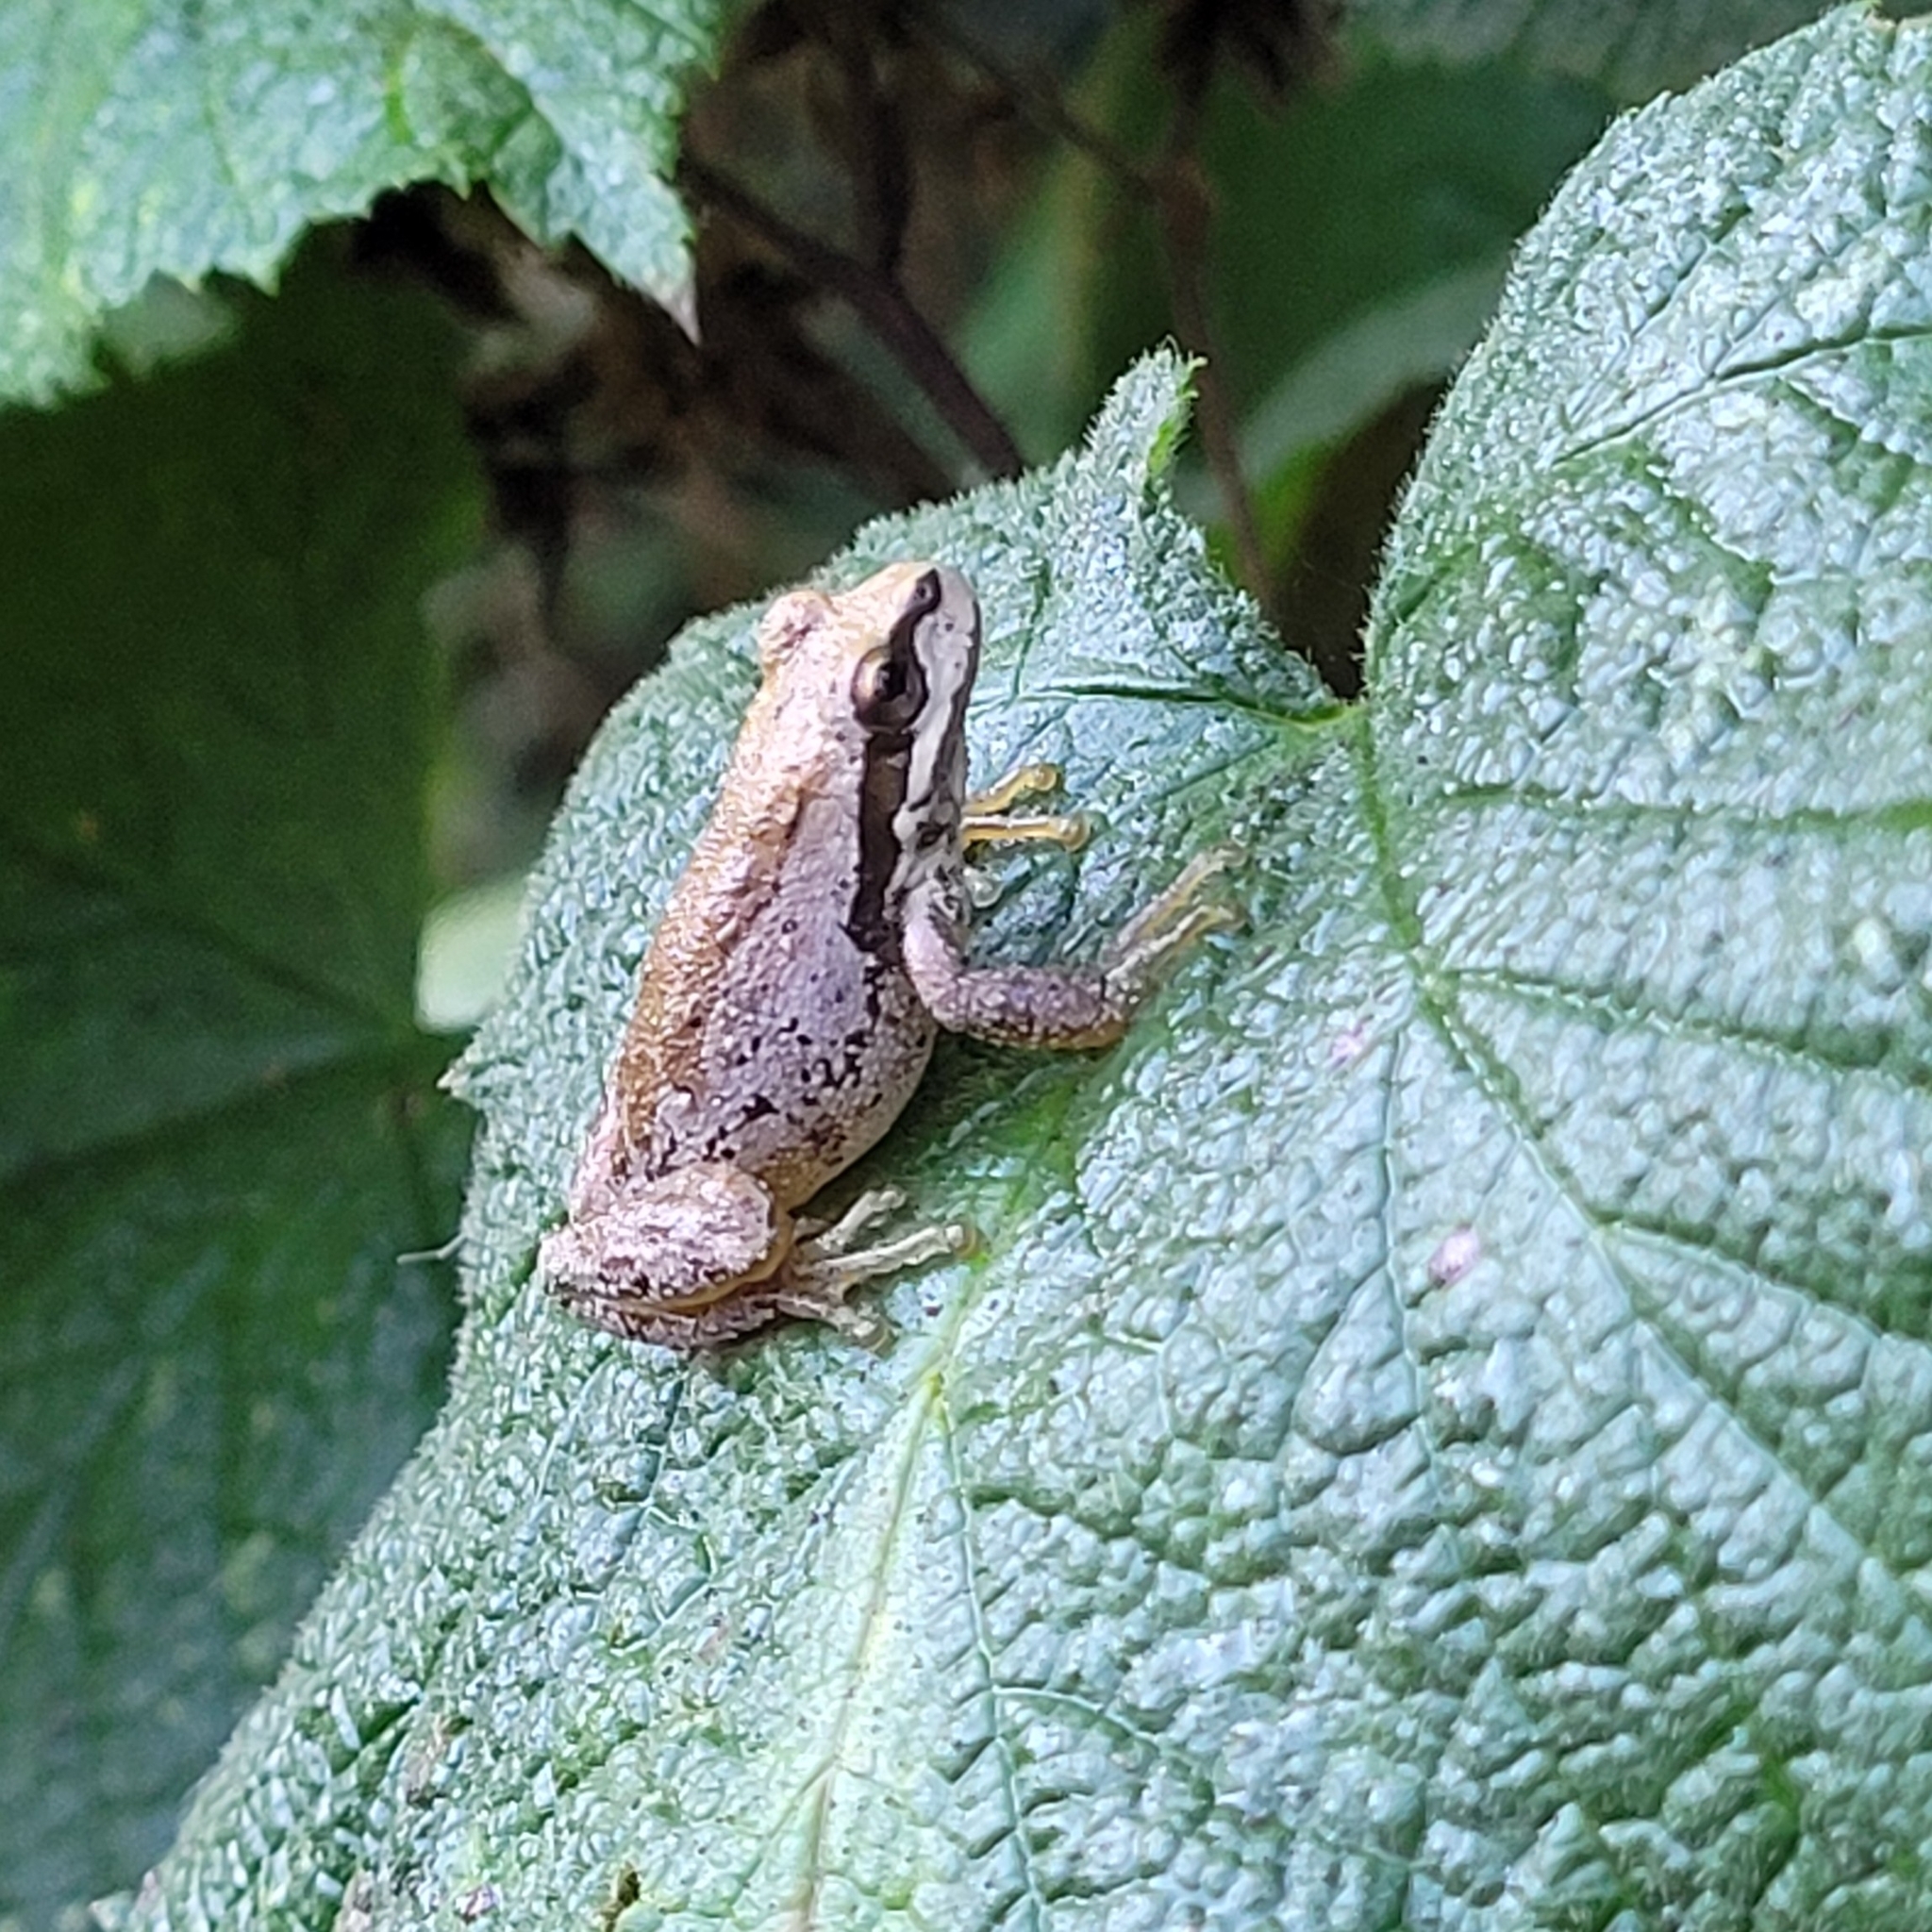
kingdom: Animalia
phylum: Chordata
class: Amphibia
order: Anura
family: Hylidae
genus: Pseudacris
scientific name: Pseudacris regilla
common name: Pacific chorus frog
